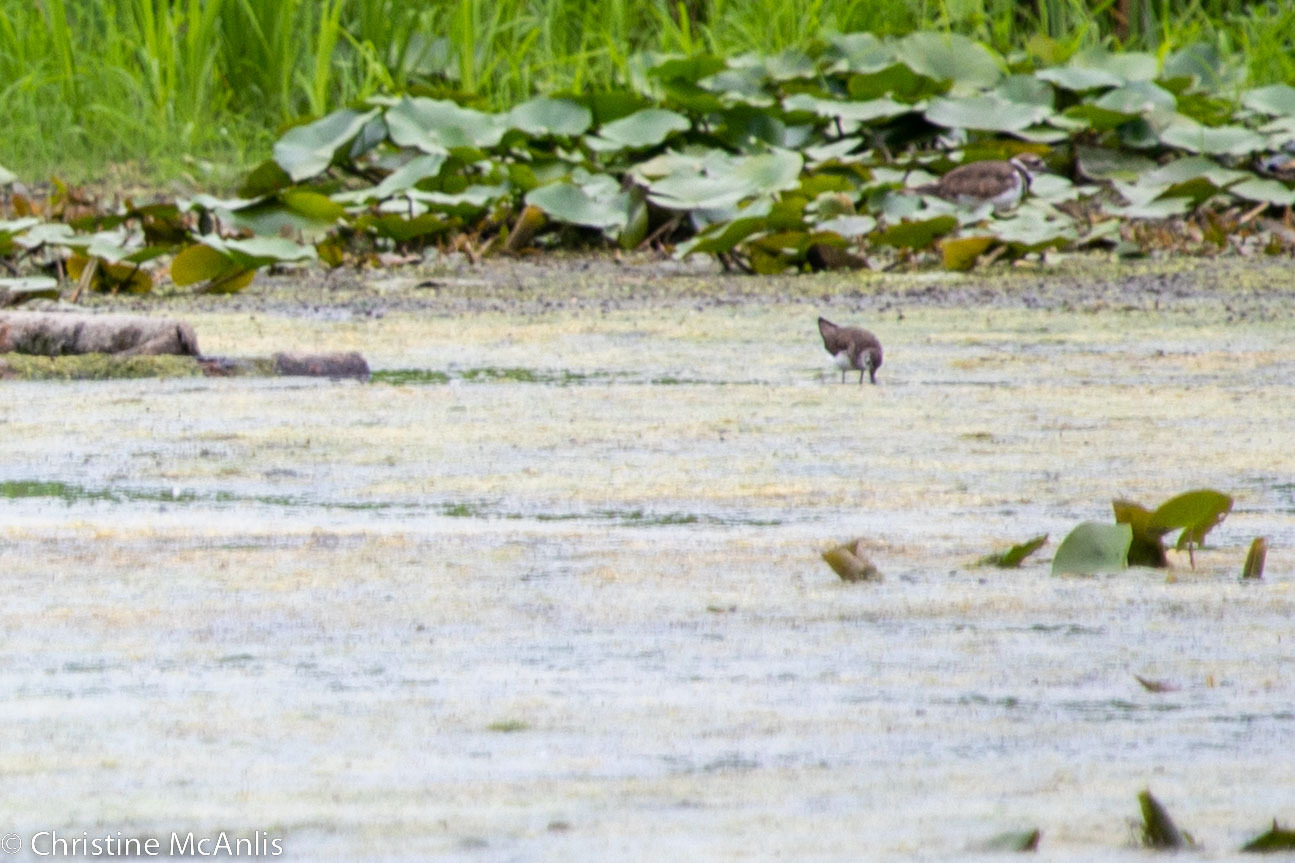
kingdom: Animalia
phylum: Chordata
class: Aves
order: Charadriiformes
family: Scolopacidae
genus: Tringa
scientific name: Tringa solitaria
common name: Solitary sandpiper
